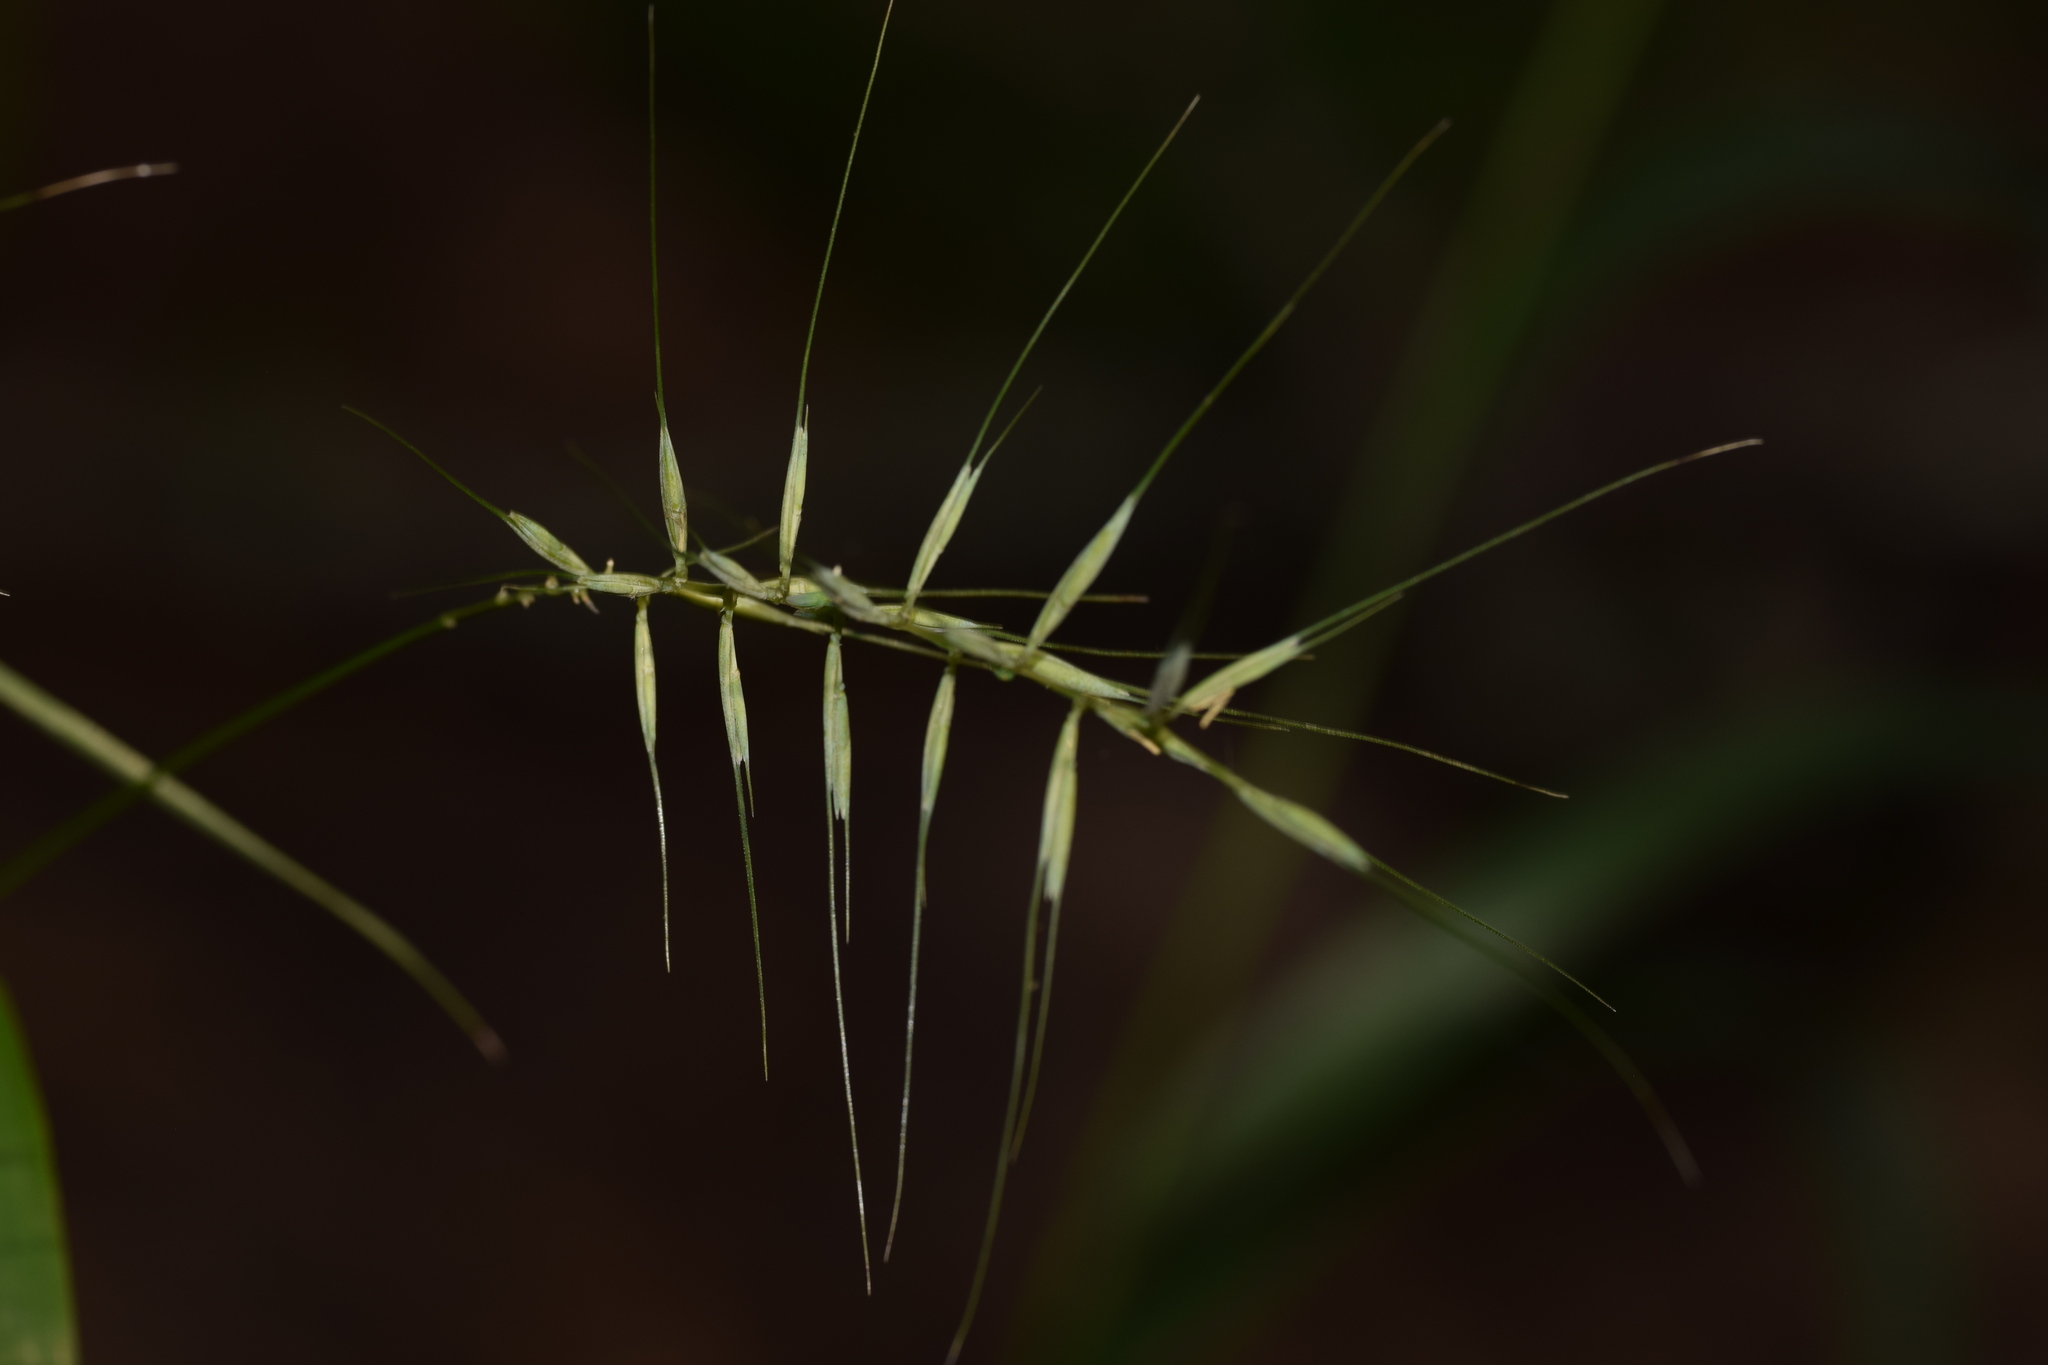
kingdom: Plantae
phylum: Tracheophyta
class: Liliopsida
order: Poales
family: Poaceae
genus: Elymus
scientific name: Elymus hystrix
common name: Bottlebrush grass
